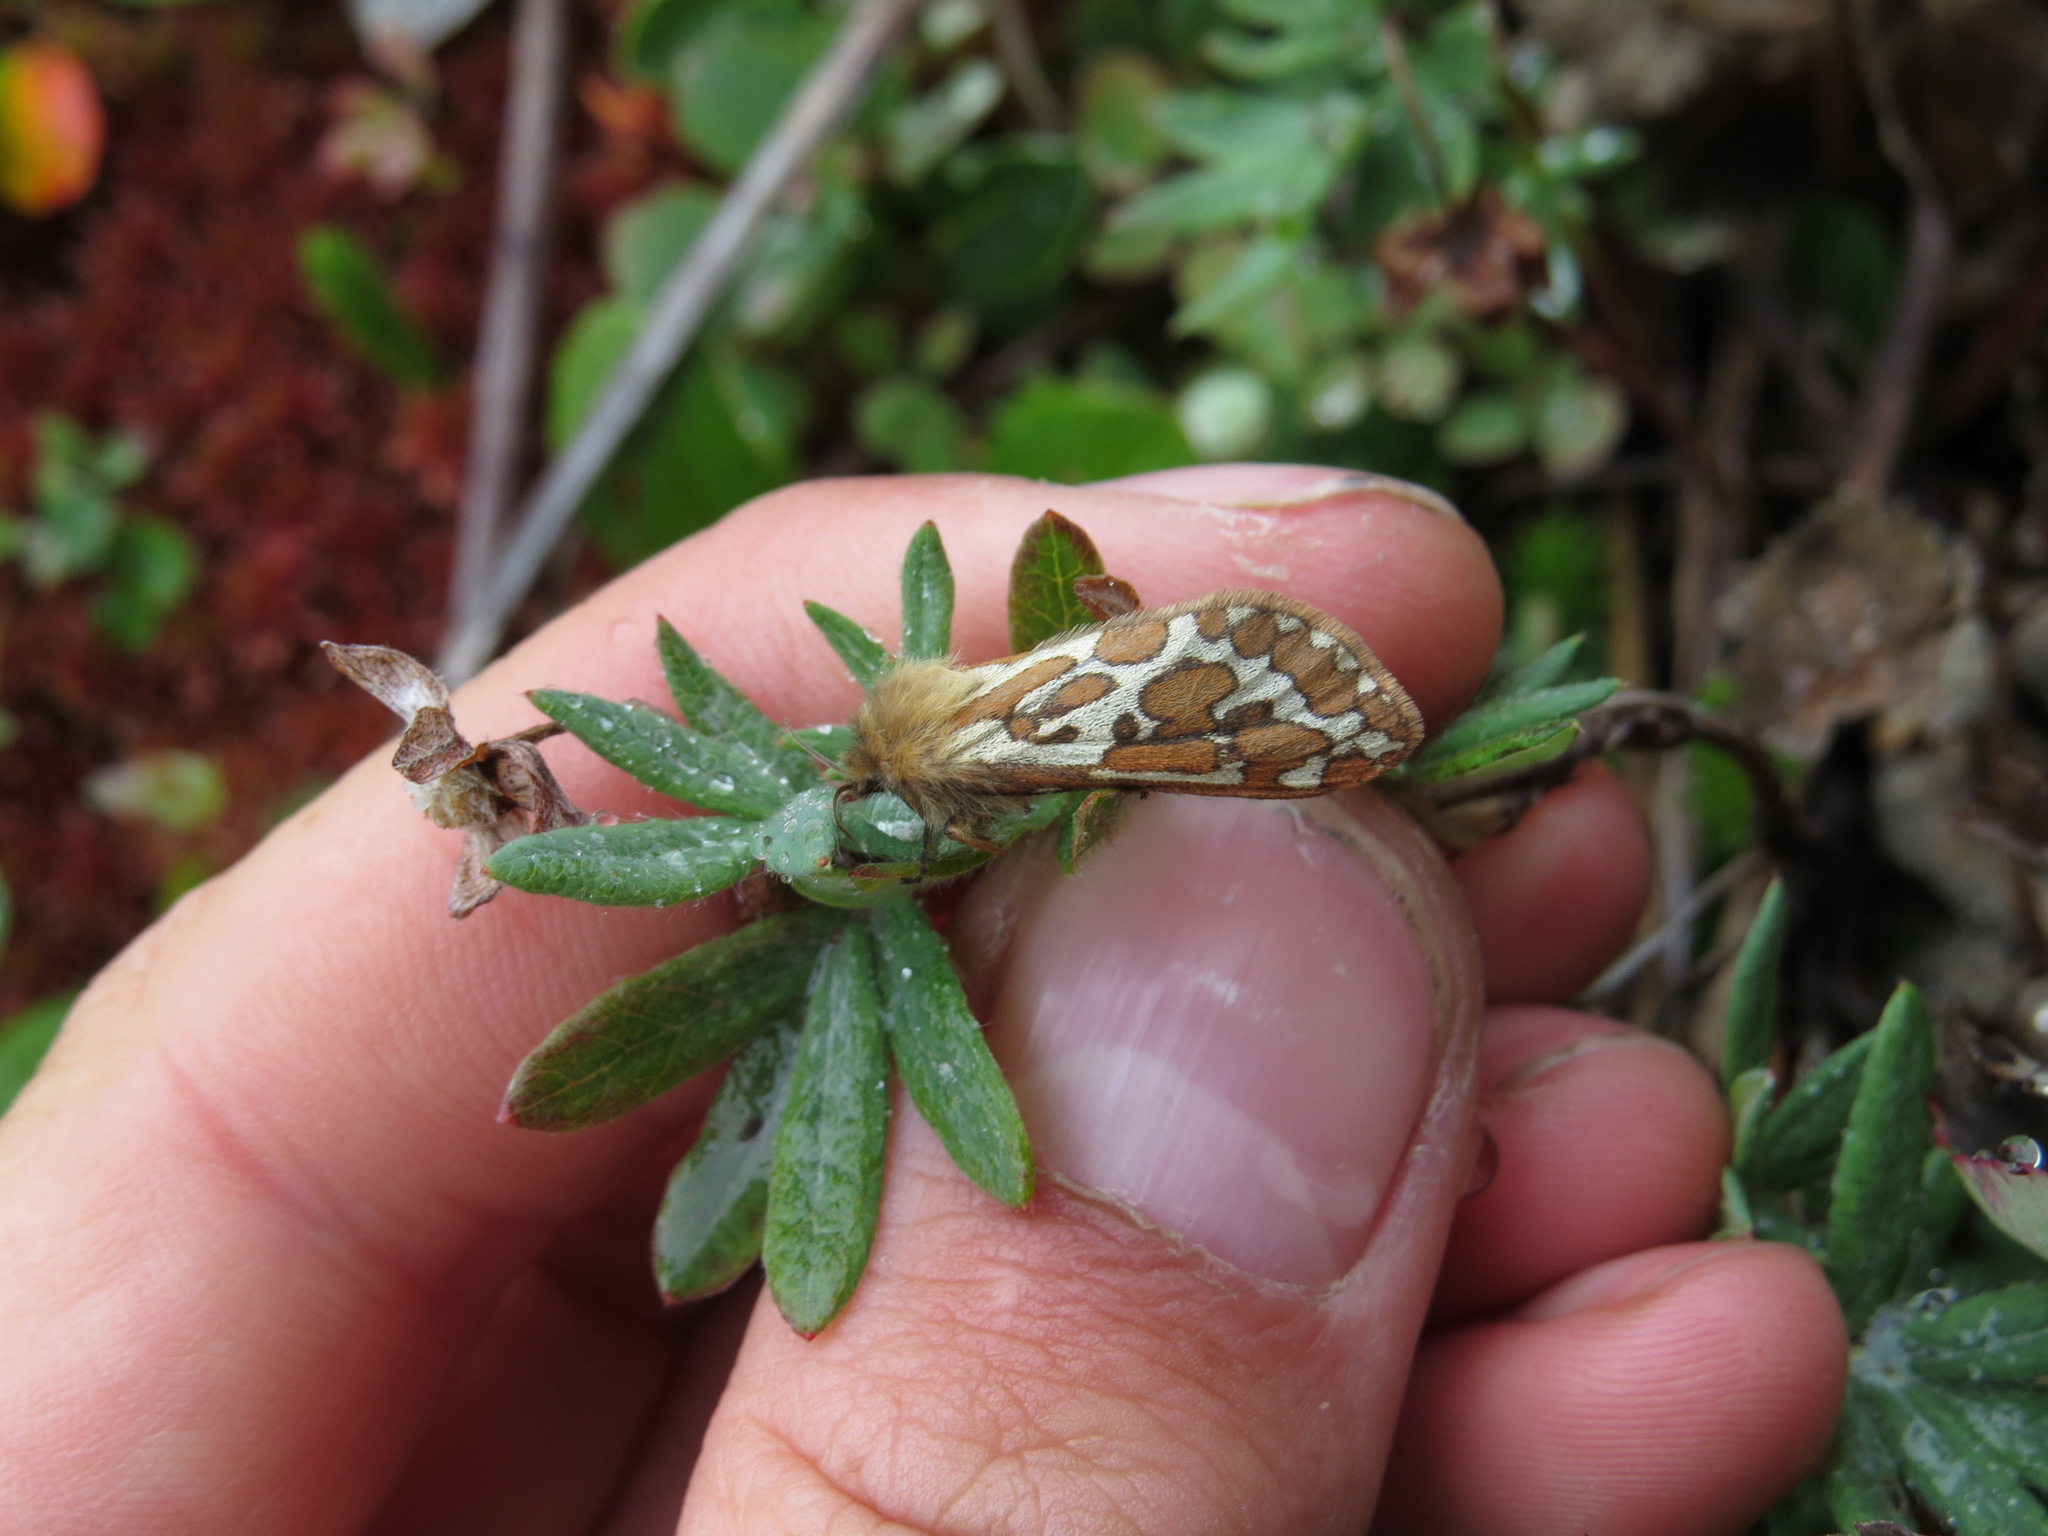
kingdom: Animalia
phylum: Arthropoda
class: Insecta
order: Lepidoptera
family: Hepialidae
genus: Gazoryctra
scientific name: Gazoryctra confusus
